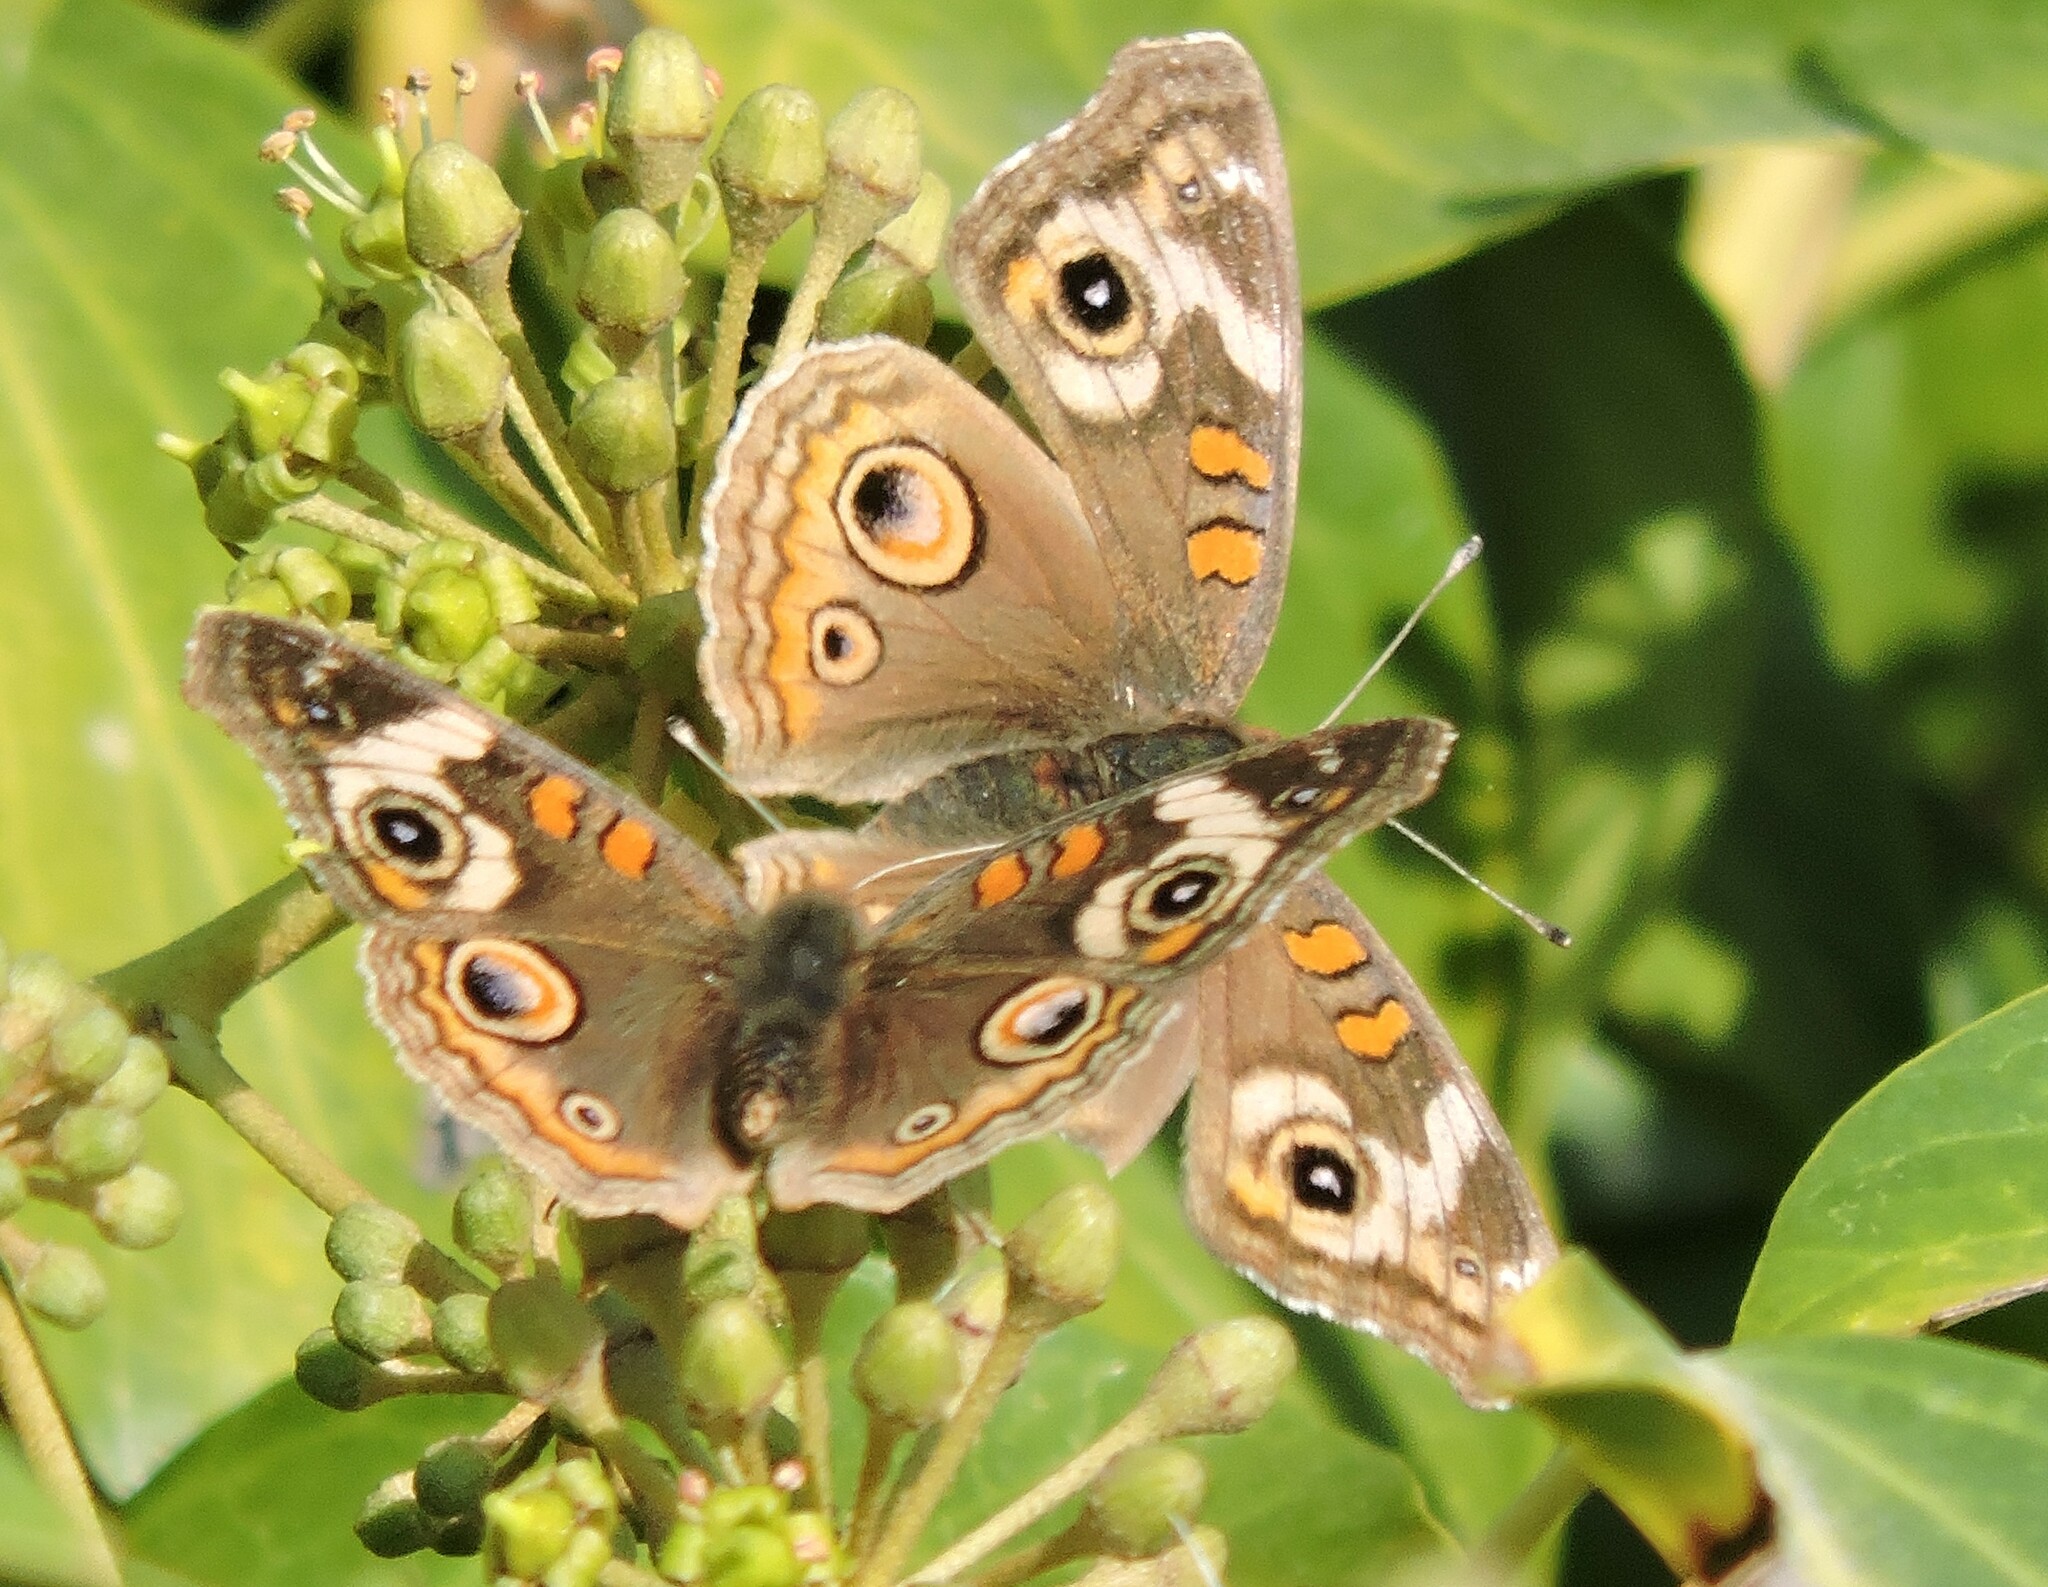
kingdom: Animalia
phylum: Arthropoda
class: Insecta
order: Lepidoptera
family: Nymphalidae
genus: Junonia
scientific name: Junonia grisea
